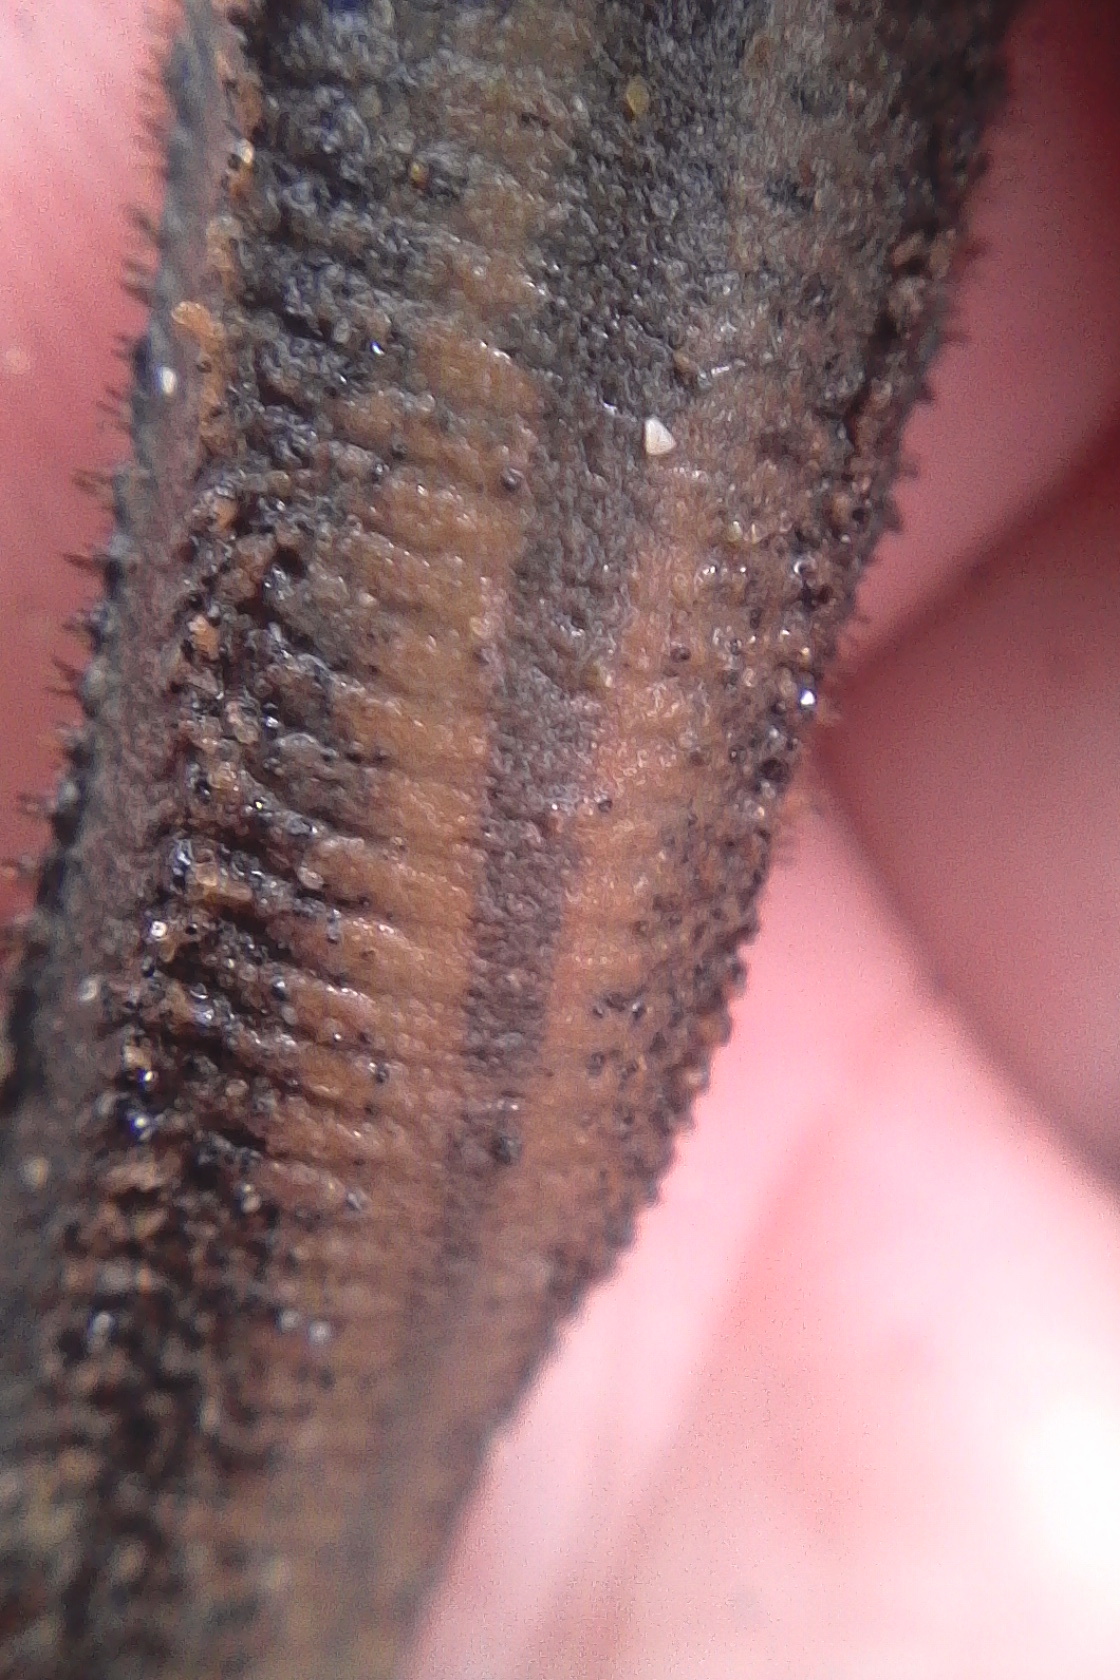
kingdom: Animalia
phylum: Annelida
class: Polychaeta
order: Phyllodocida
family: Sigalionidae
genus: Pelogenia
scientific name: Pelogenia antipoda
